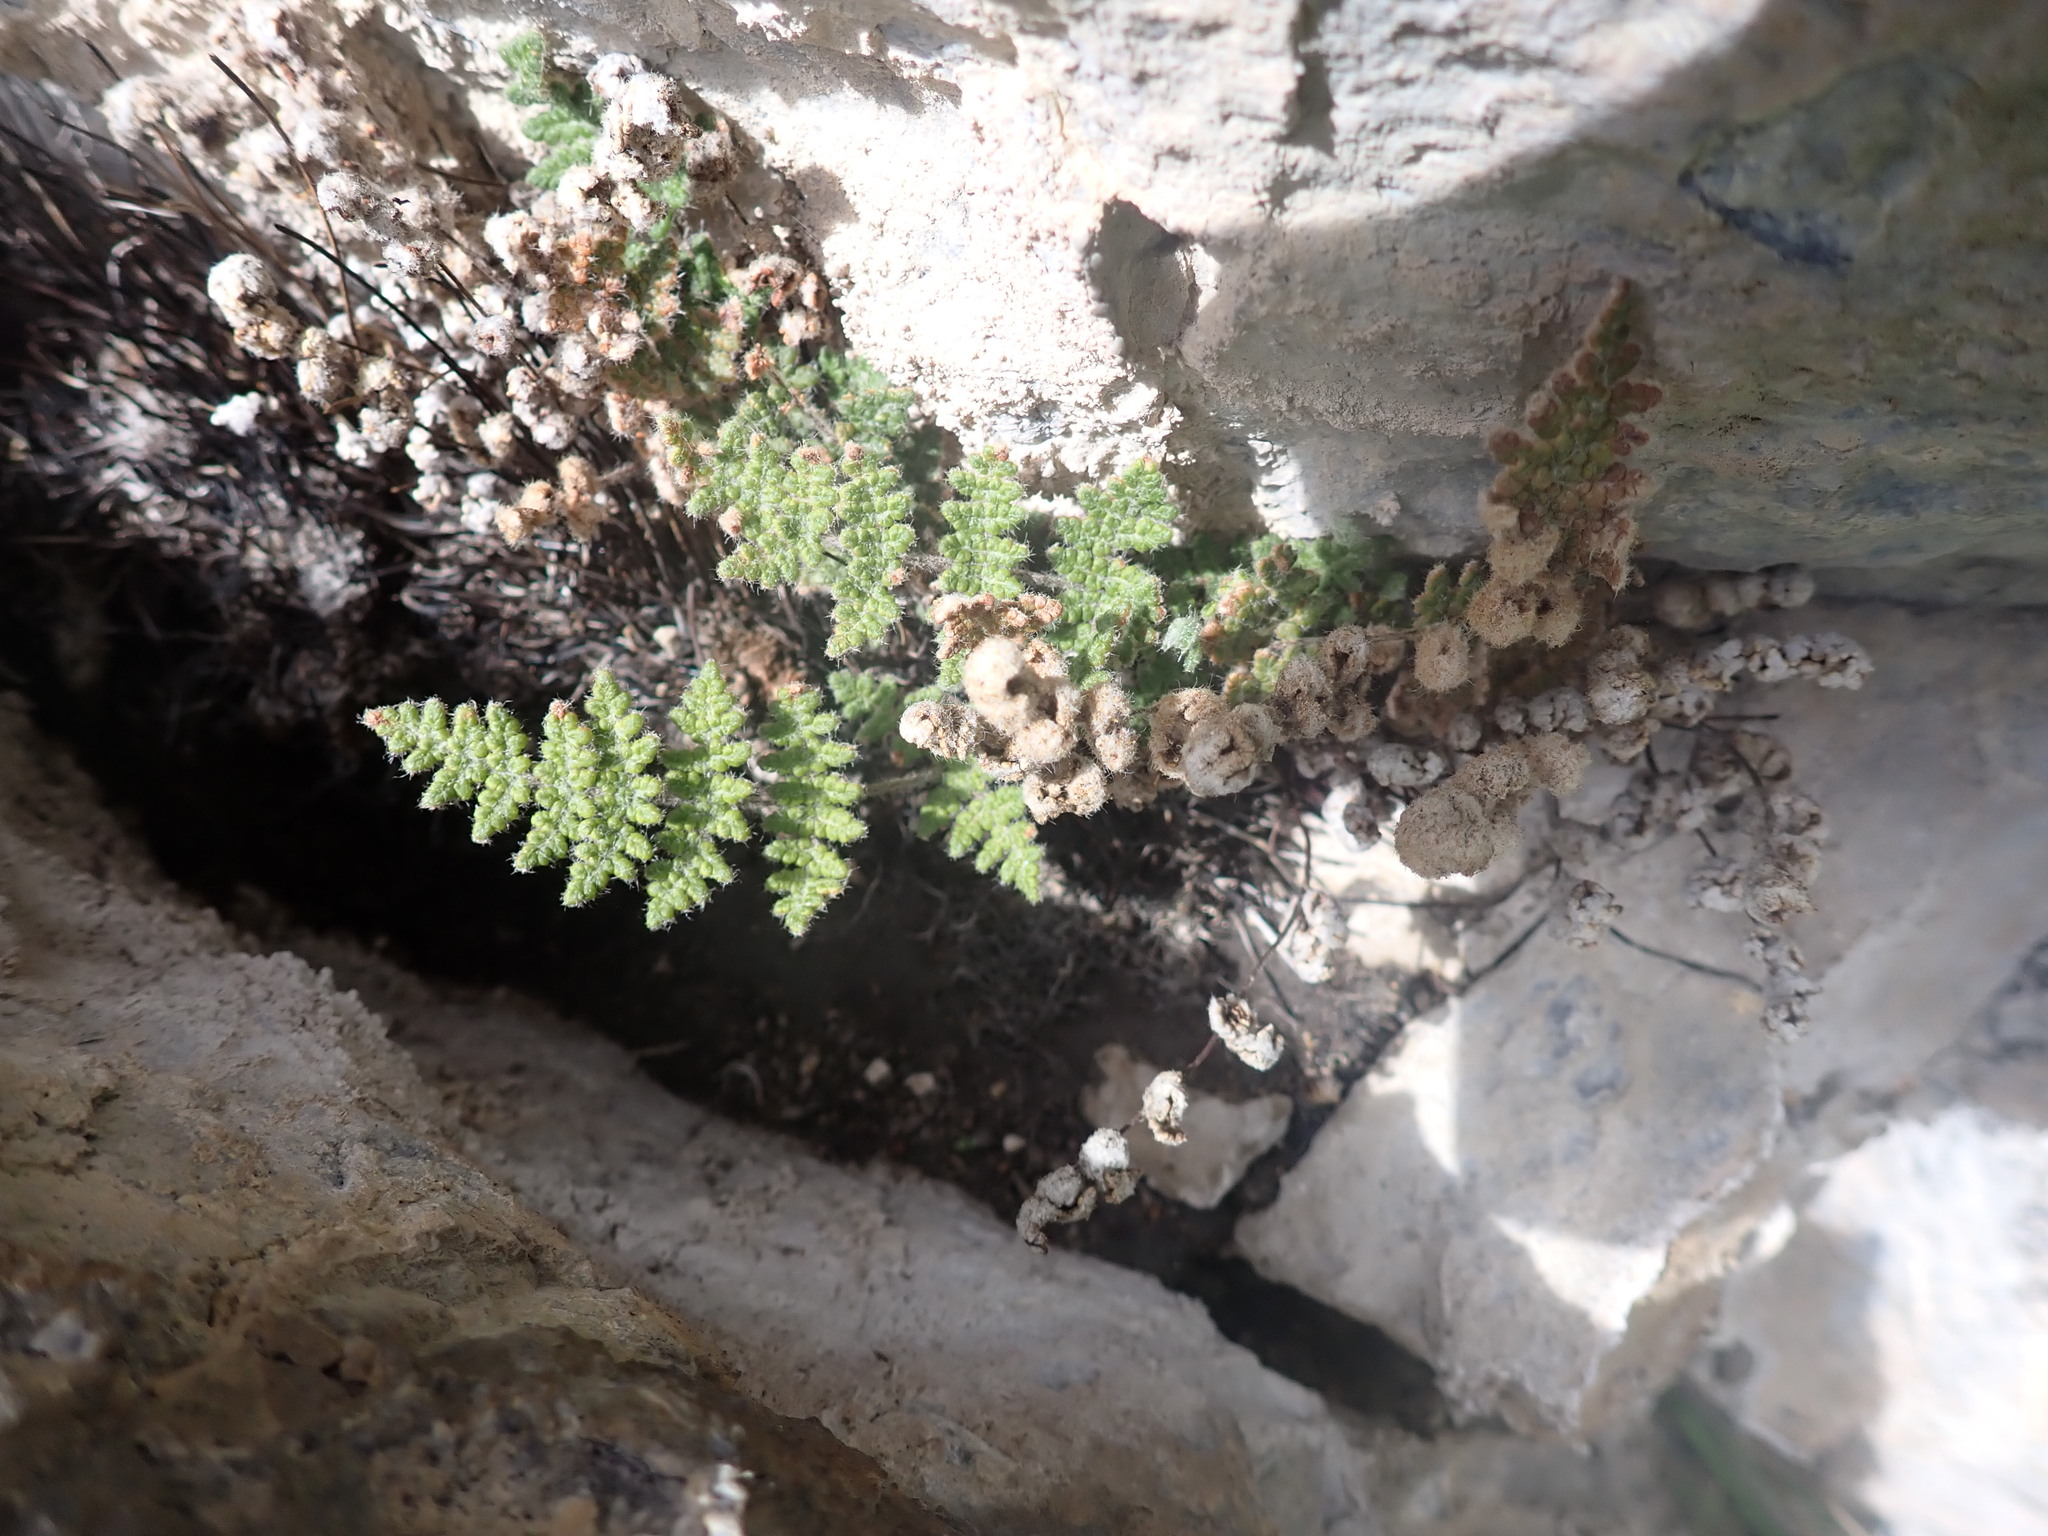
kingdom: Plantae
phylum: Tracheophyta
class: Polypodiopsida
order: Polypodiales
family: Pteridaceae
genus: Myriopteris
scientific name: Myriopteris gracilis
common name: Fee's lip fern
